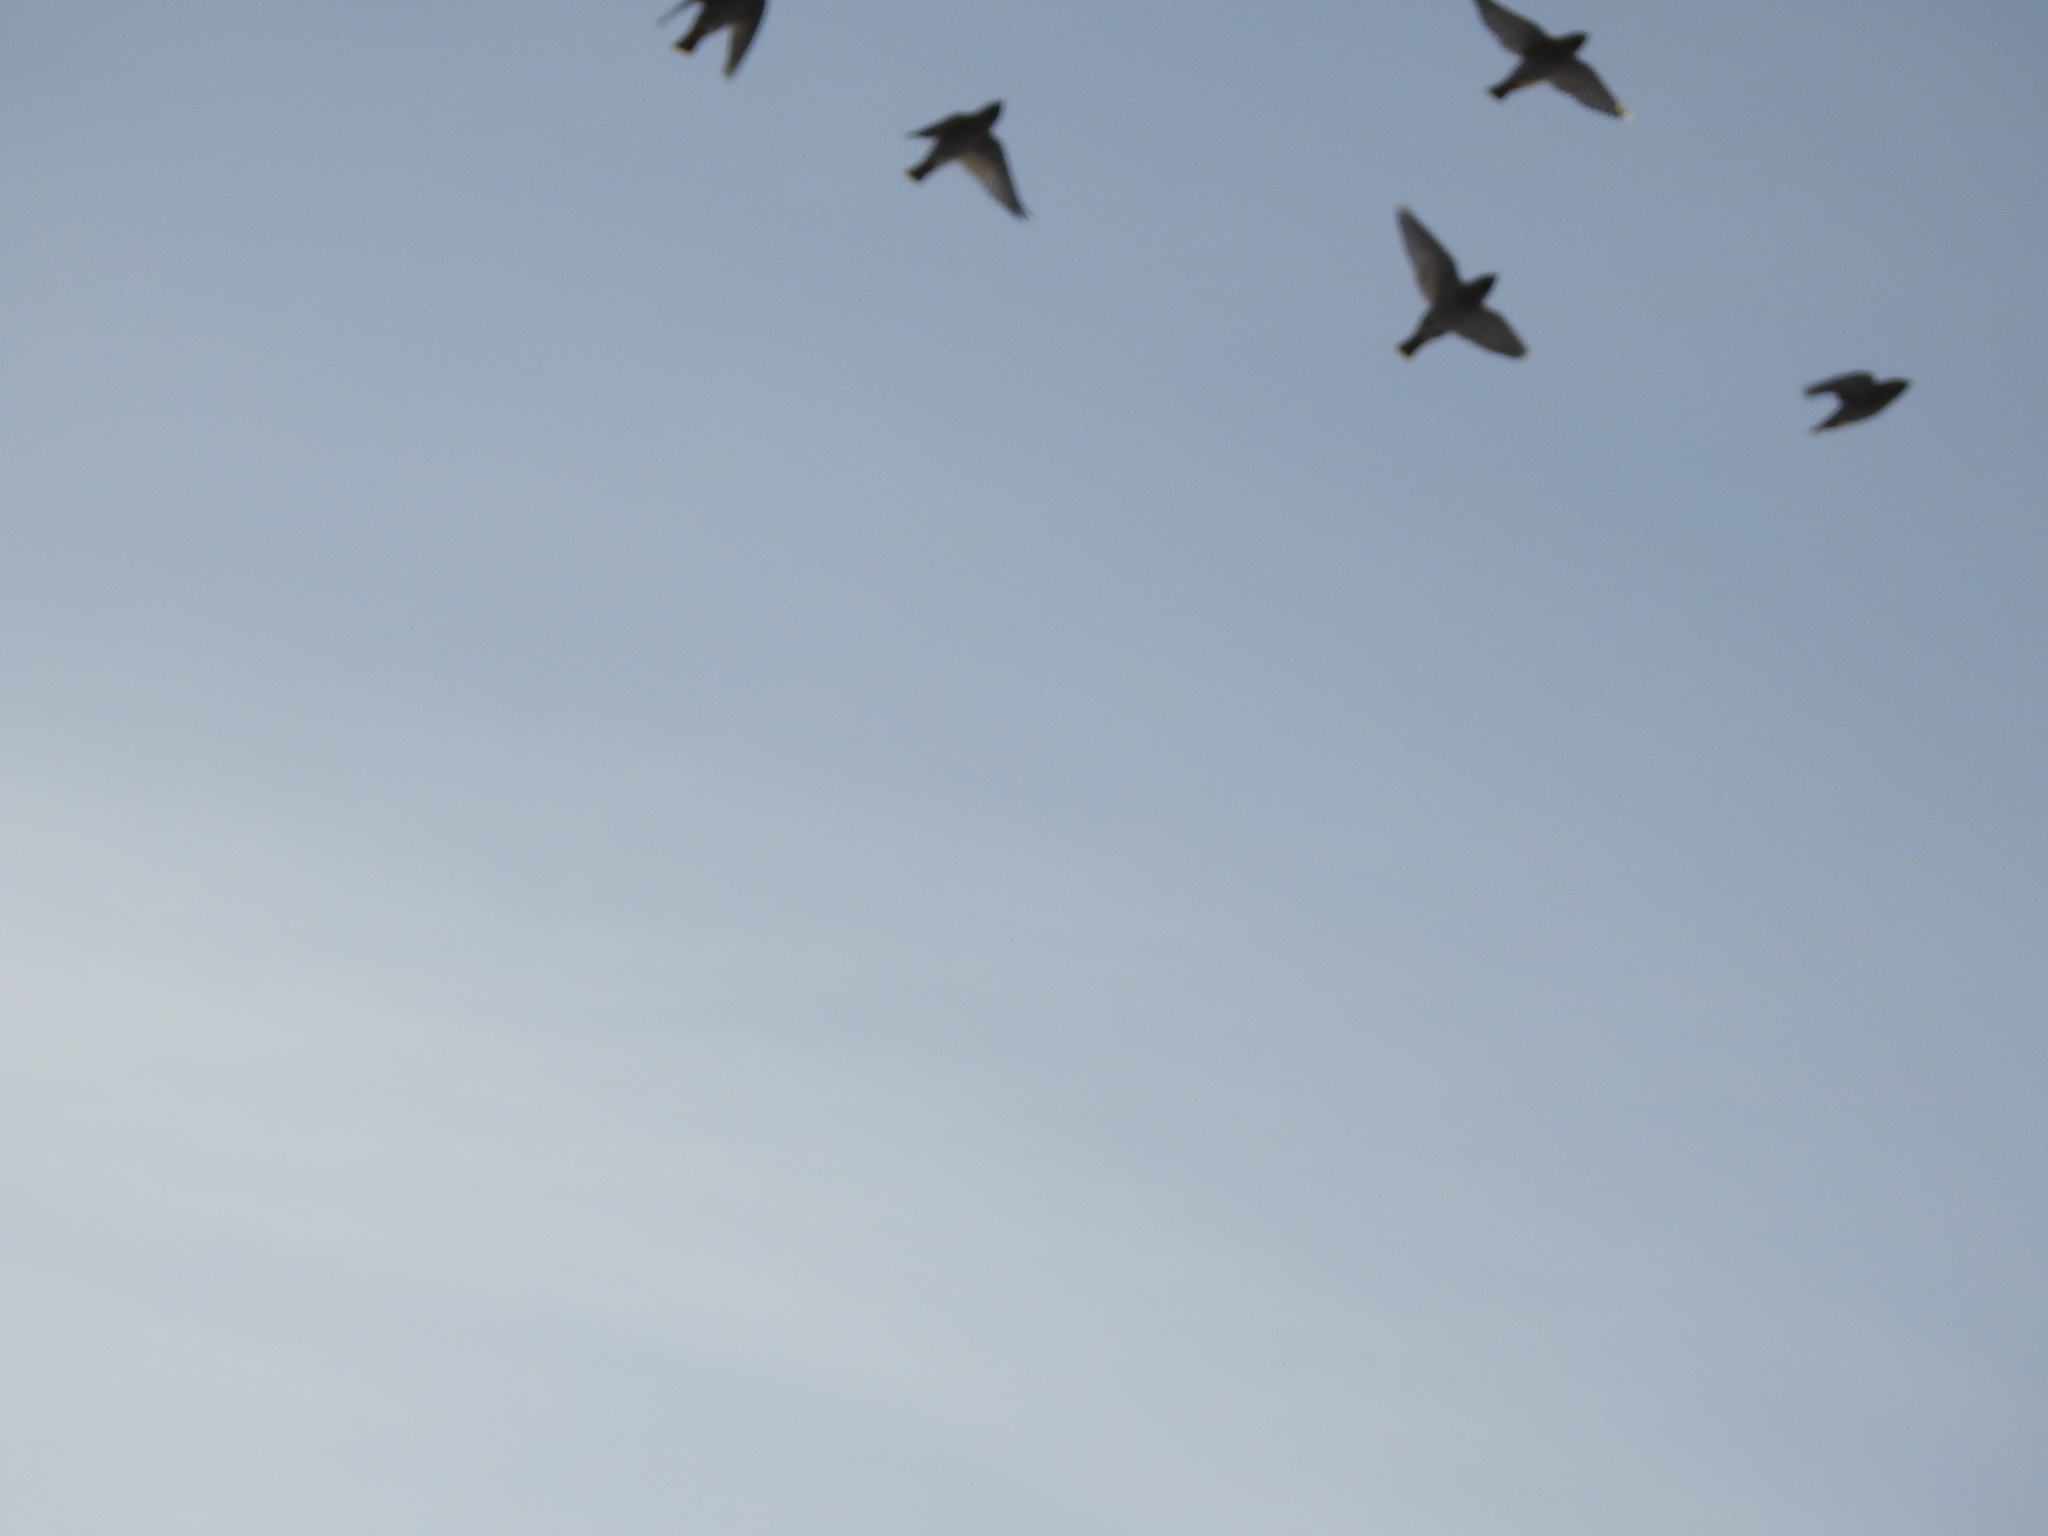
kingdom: Animalia
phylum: Chordata
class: Aves
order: Passeriformes
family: Bombycillidae
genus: Bombycilla
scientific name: Bombycilla garrulus
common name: Bohemian waxwing
